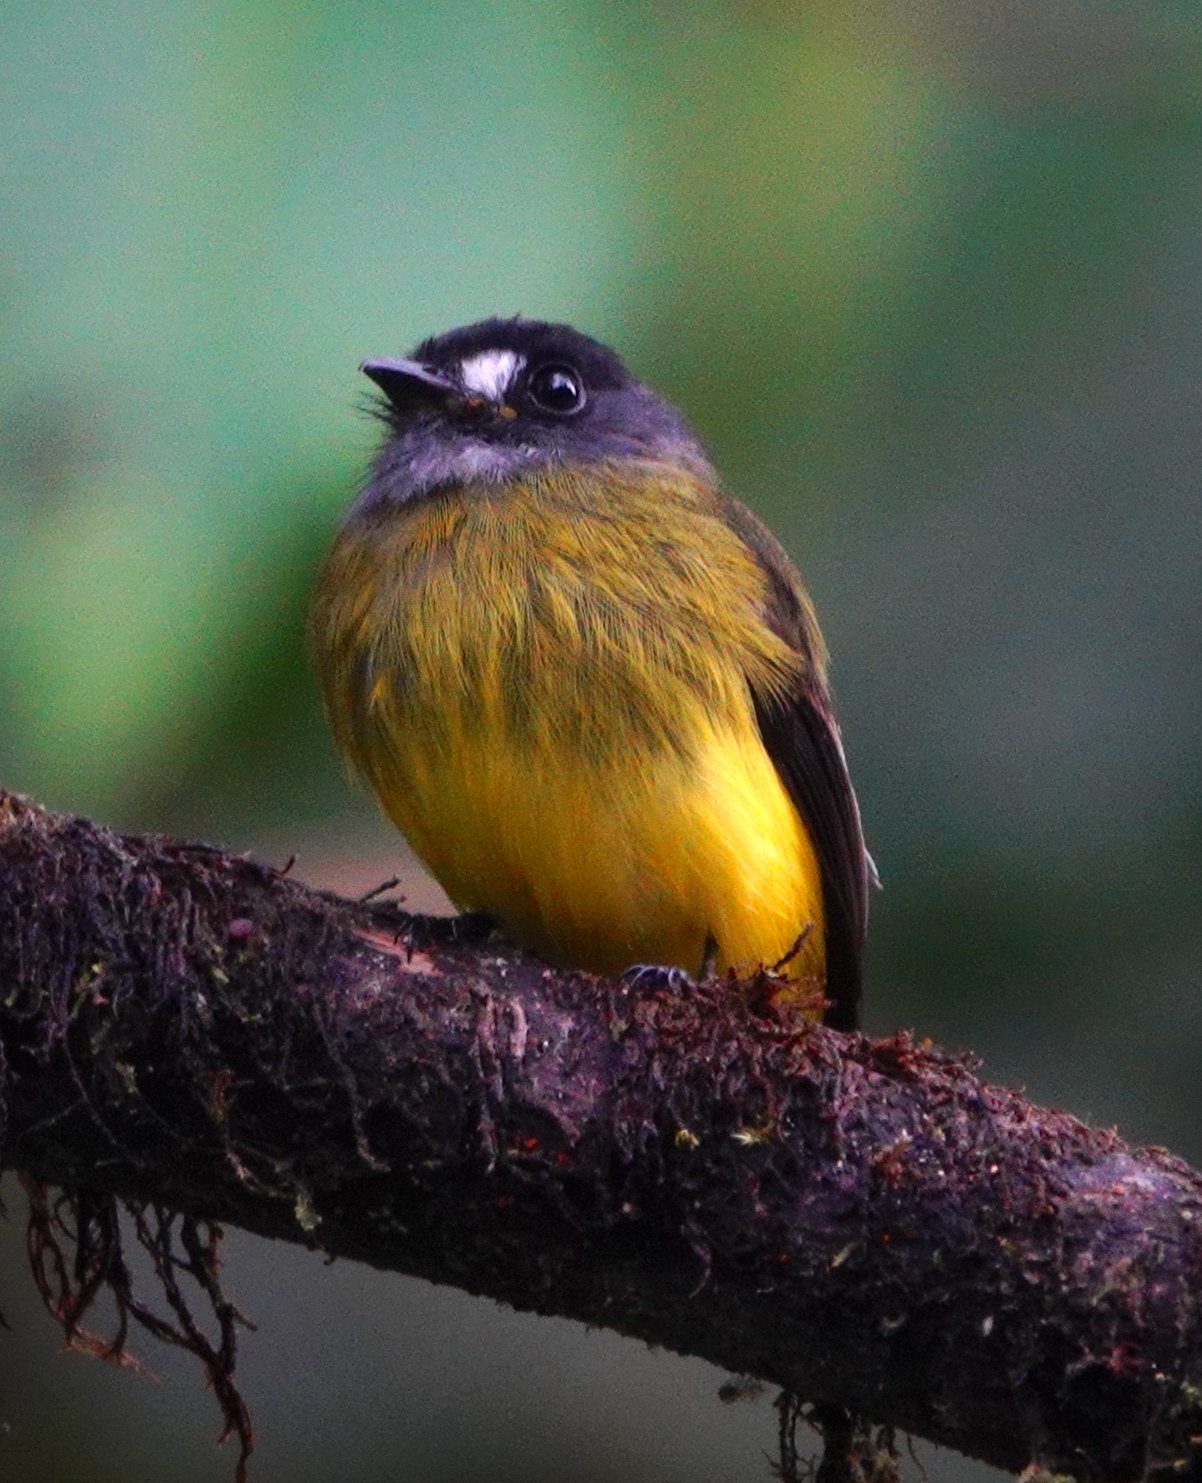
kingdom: Animalia
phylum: Chordata
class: Aves
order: Passeriformes
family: Tyrannidae
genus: Myiotriccus
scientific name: Myiotriccus ornatus
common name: Ornate flycatcher
